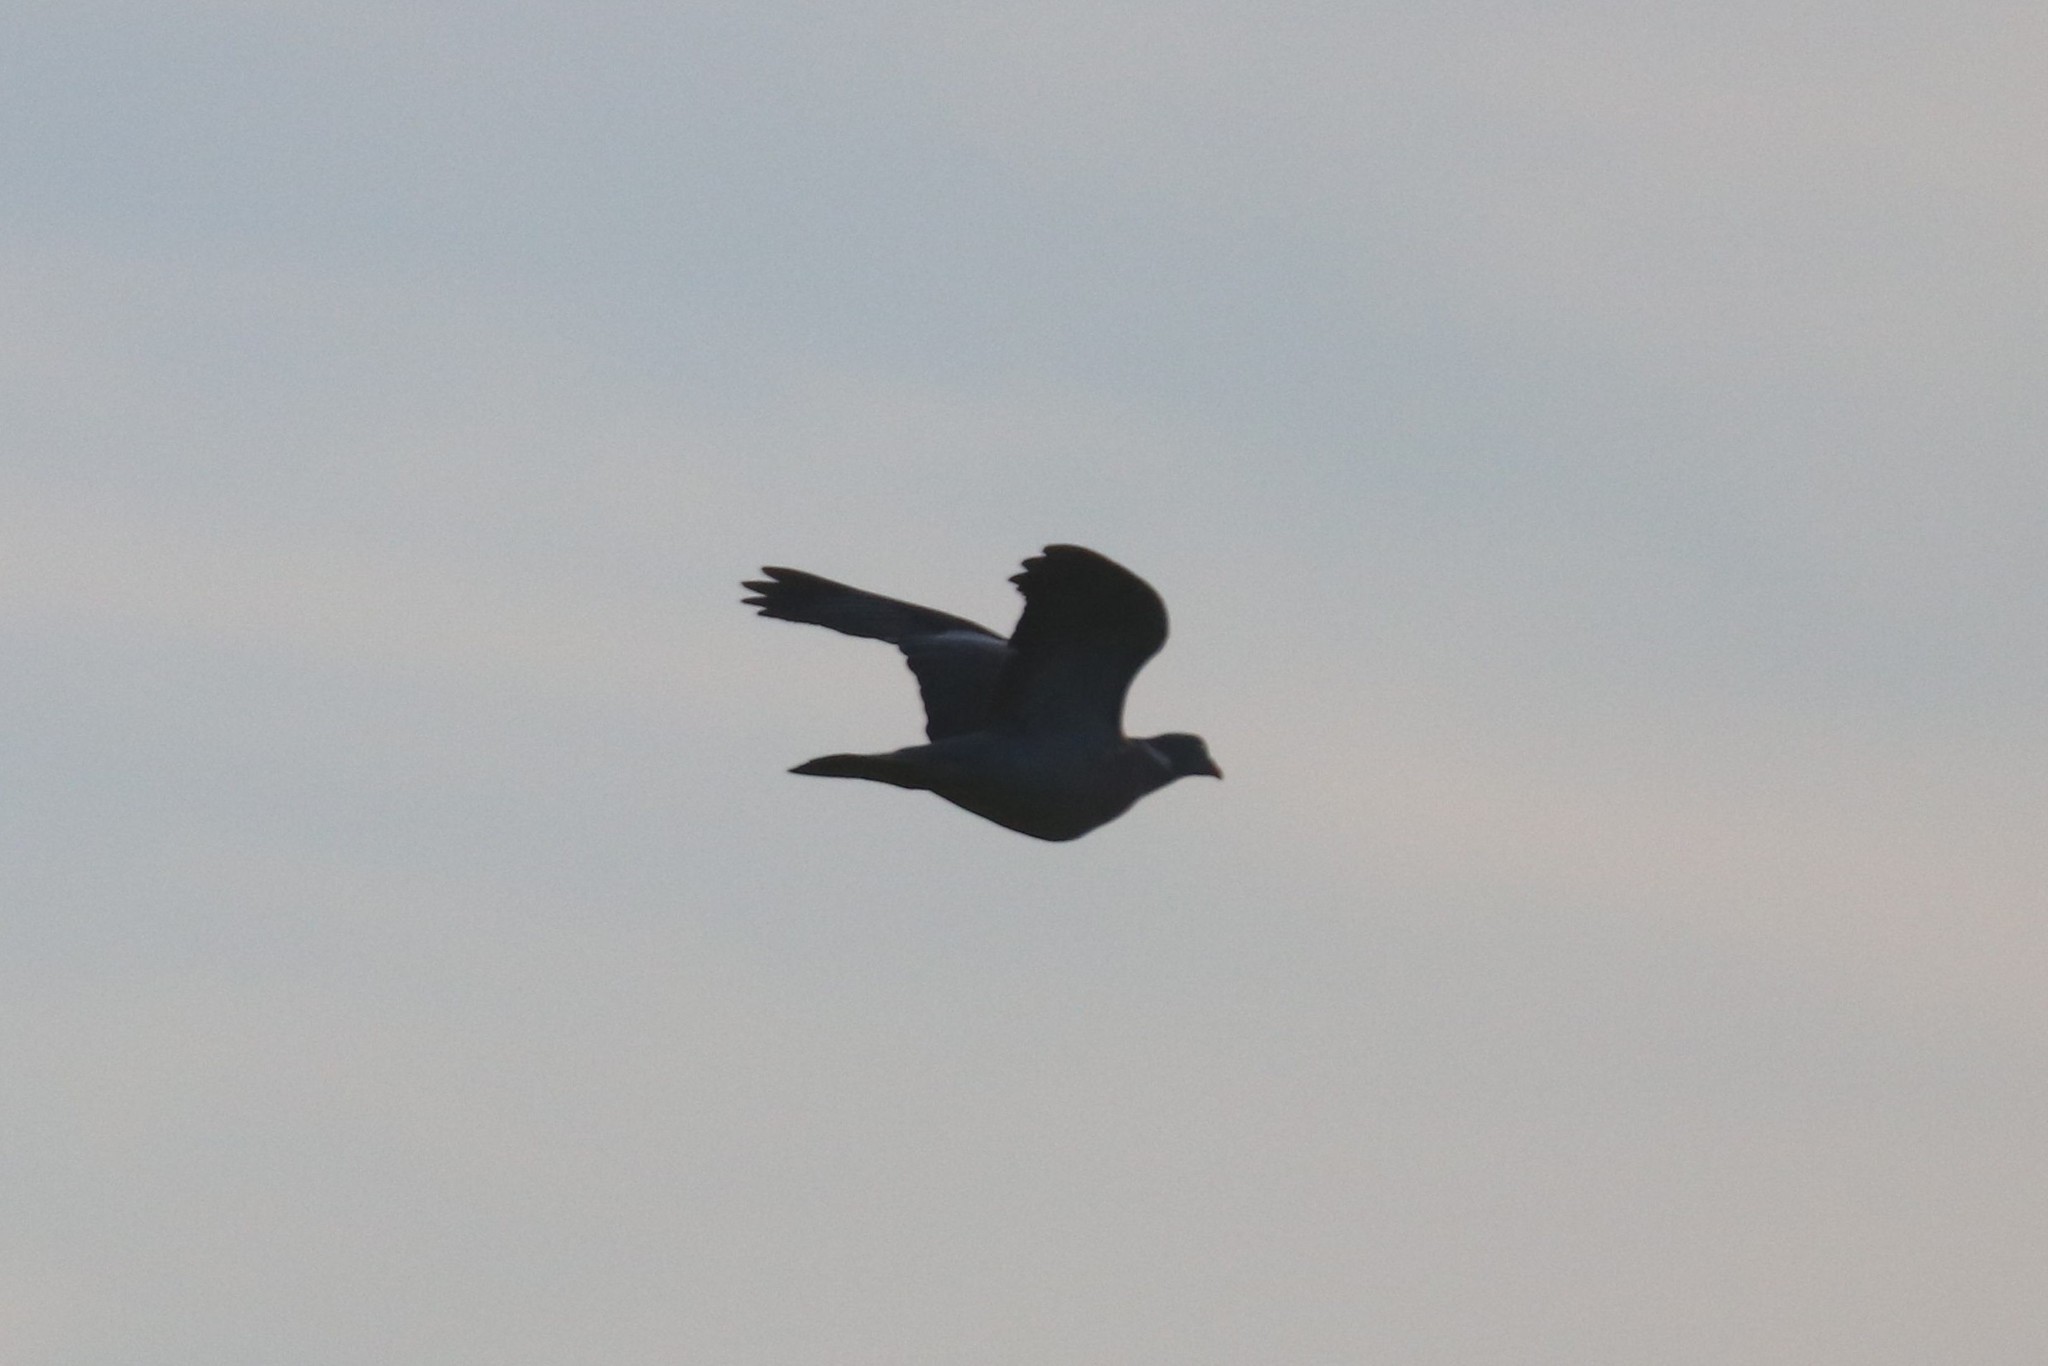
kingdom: Animalia
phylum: Chordata
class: Aves
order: Columbiformes
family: Columbidae
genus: Columba
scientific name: Columba palumbus
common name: Common wood pigeon
